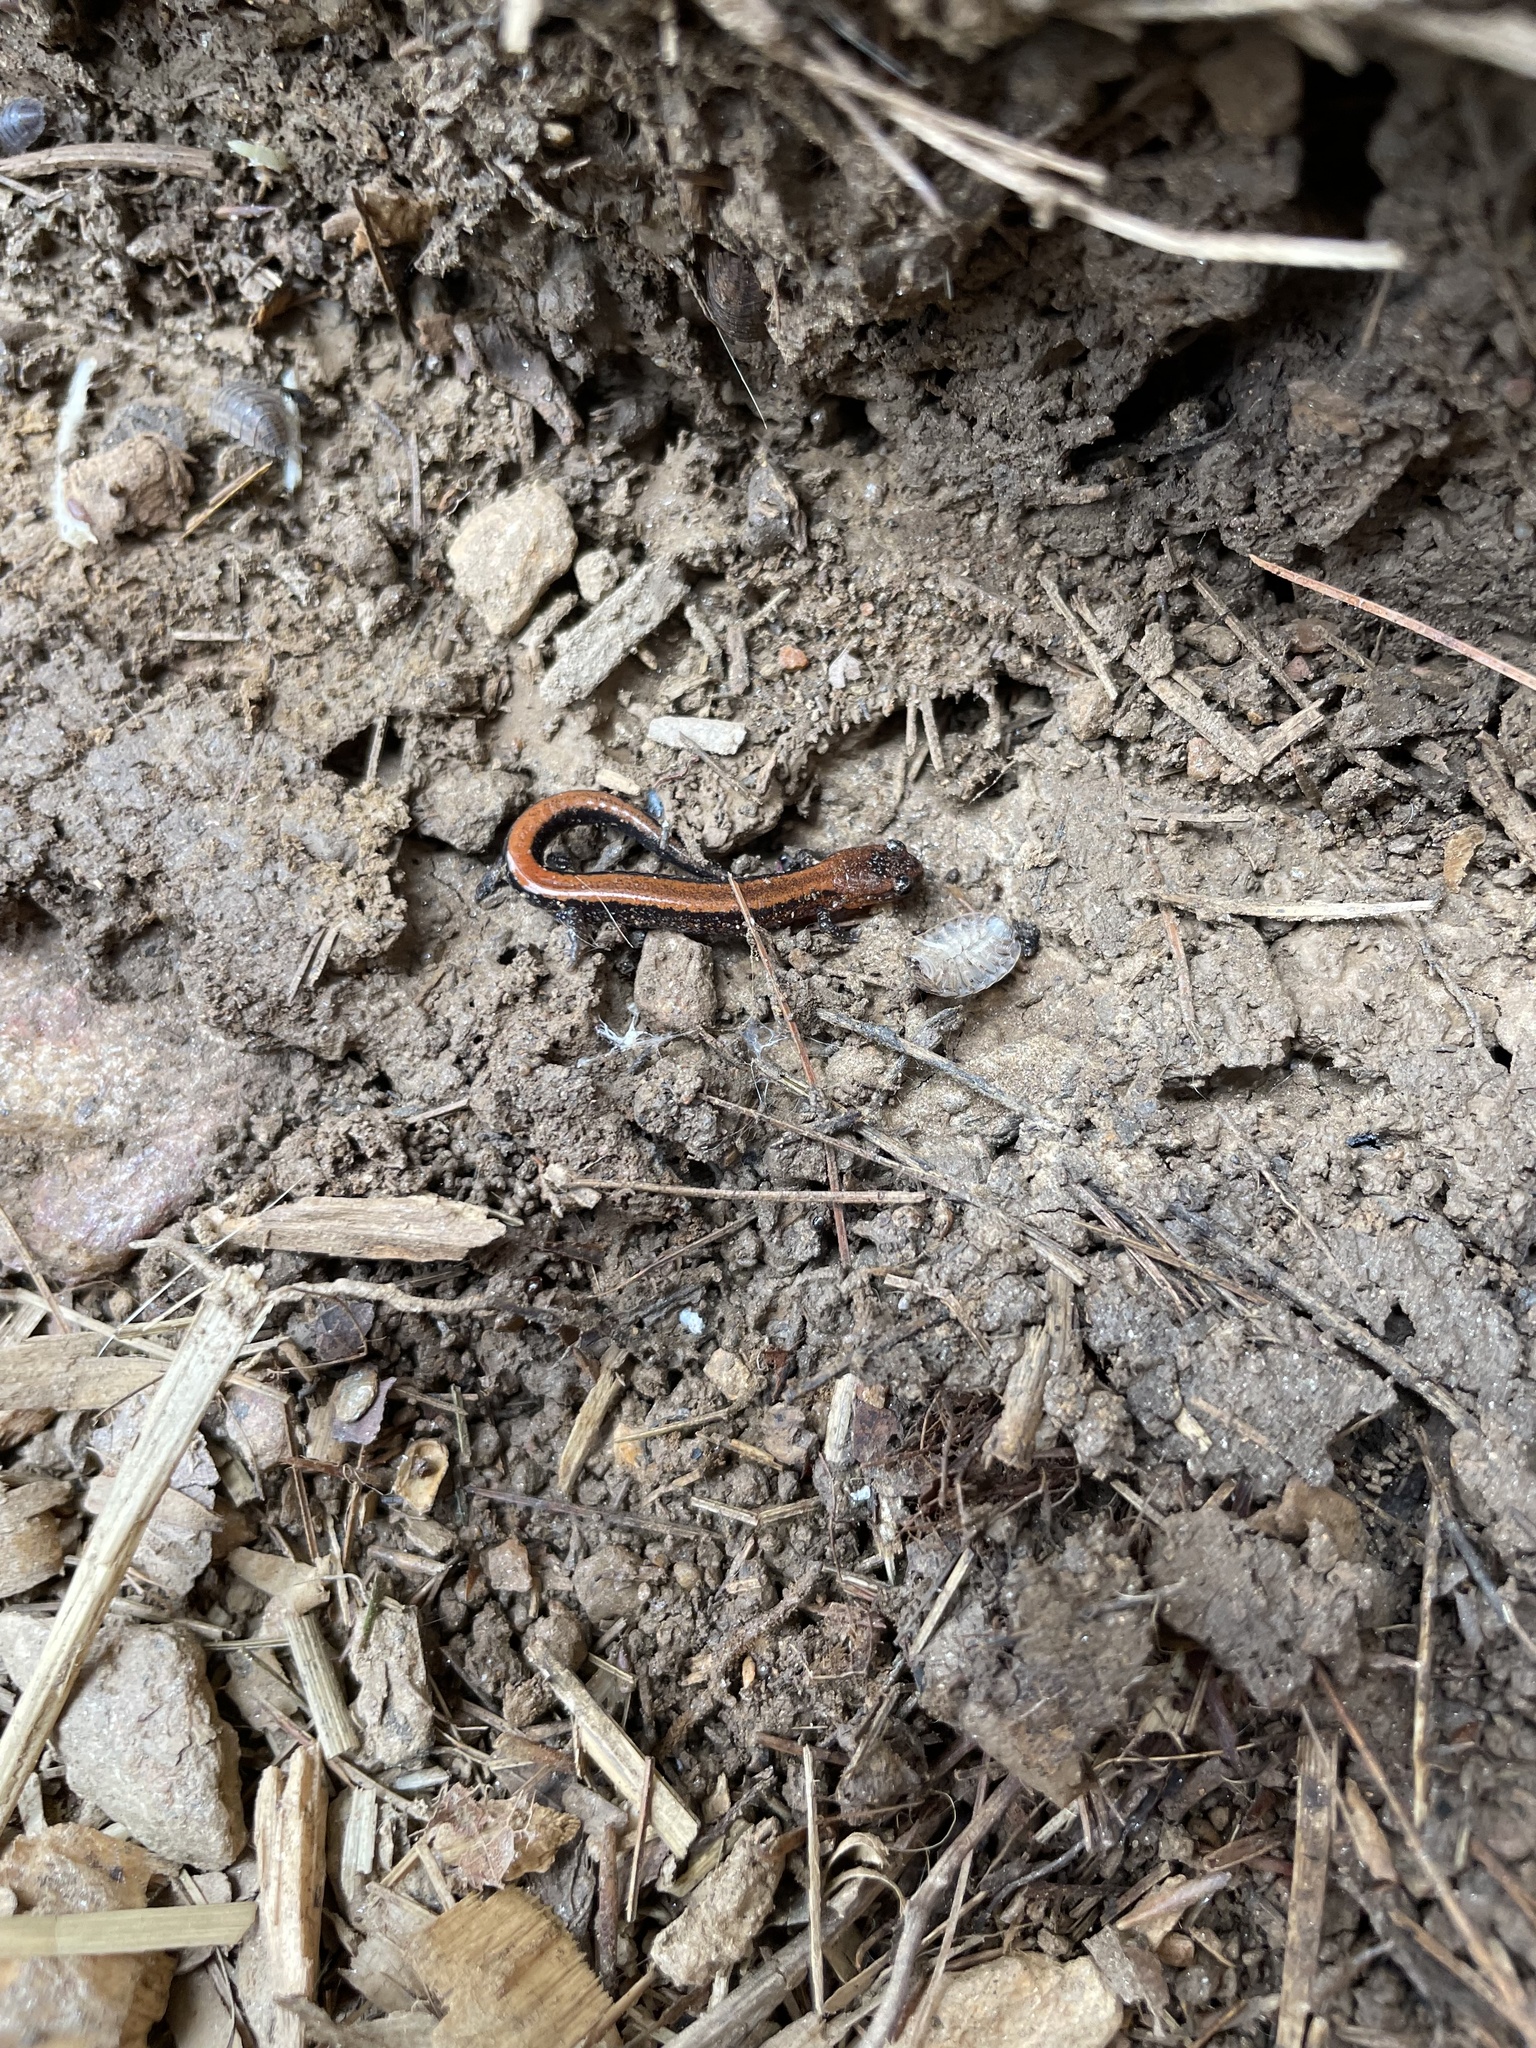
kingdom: Animalia
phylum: Chordata
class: Amphibia
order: Caudata
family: Plethodontidae
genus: Plethodon
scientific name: Plethodon cinereus
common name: Redback salamander
